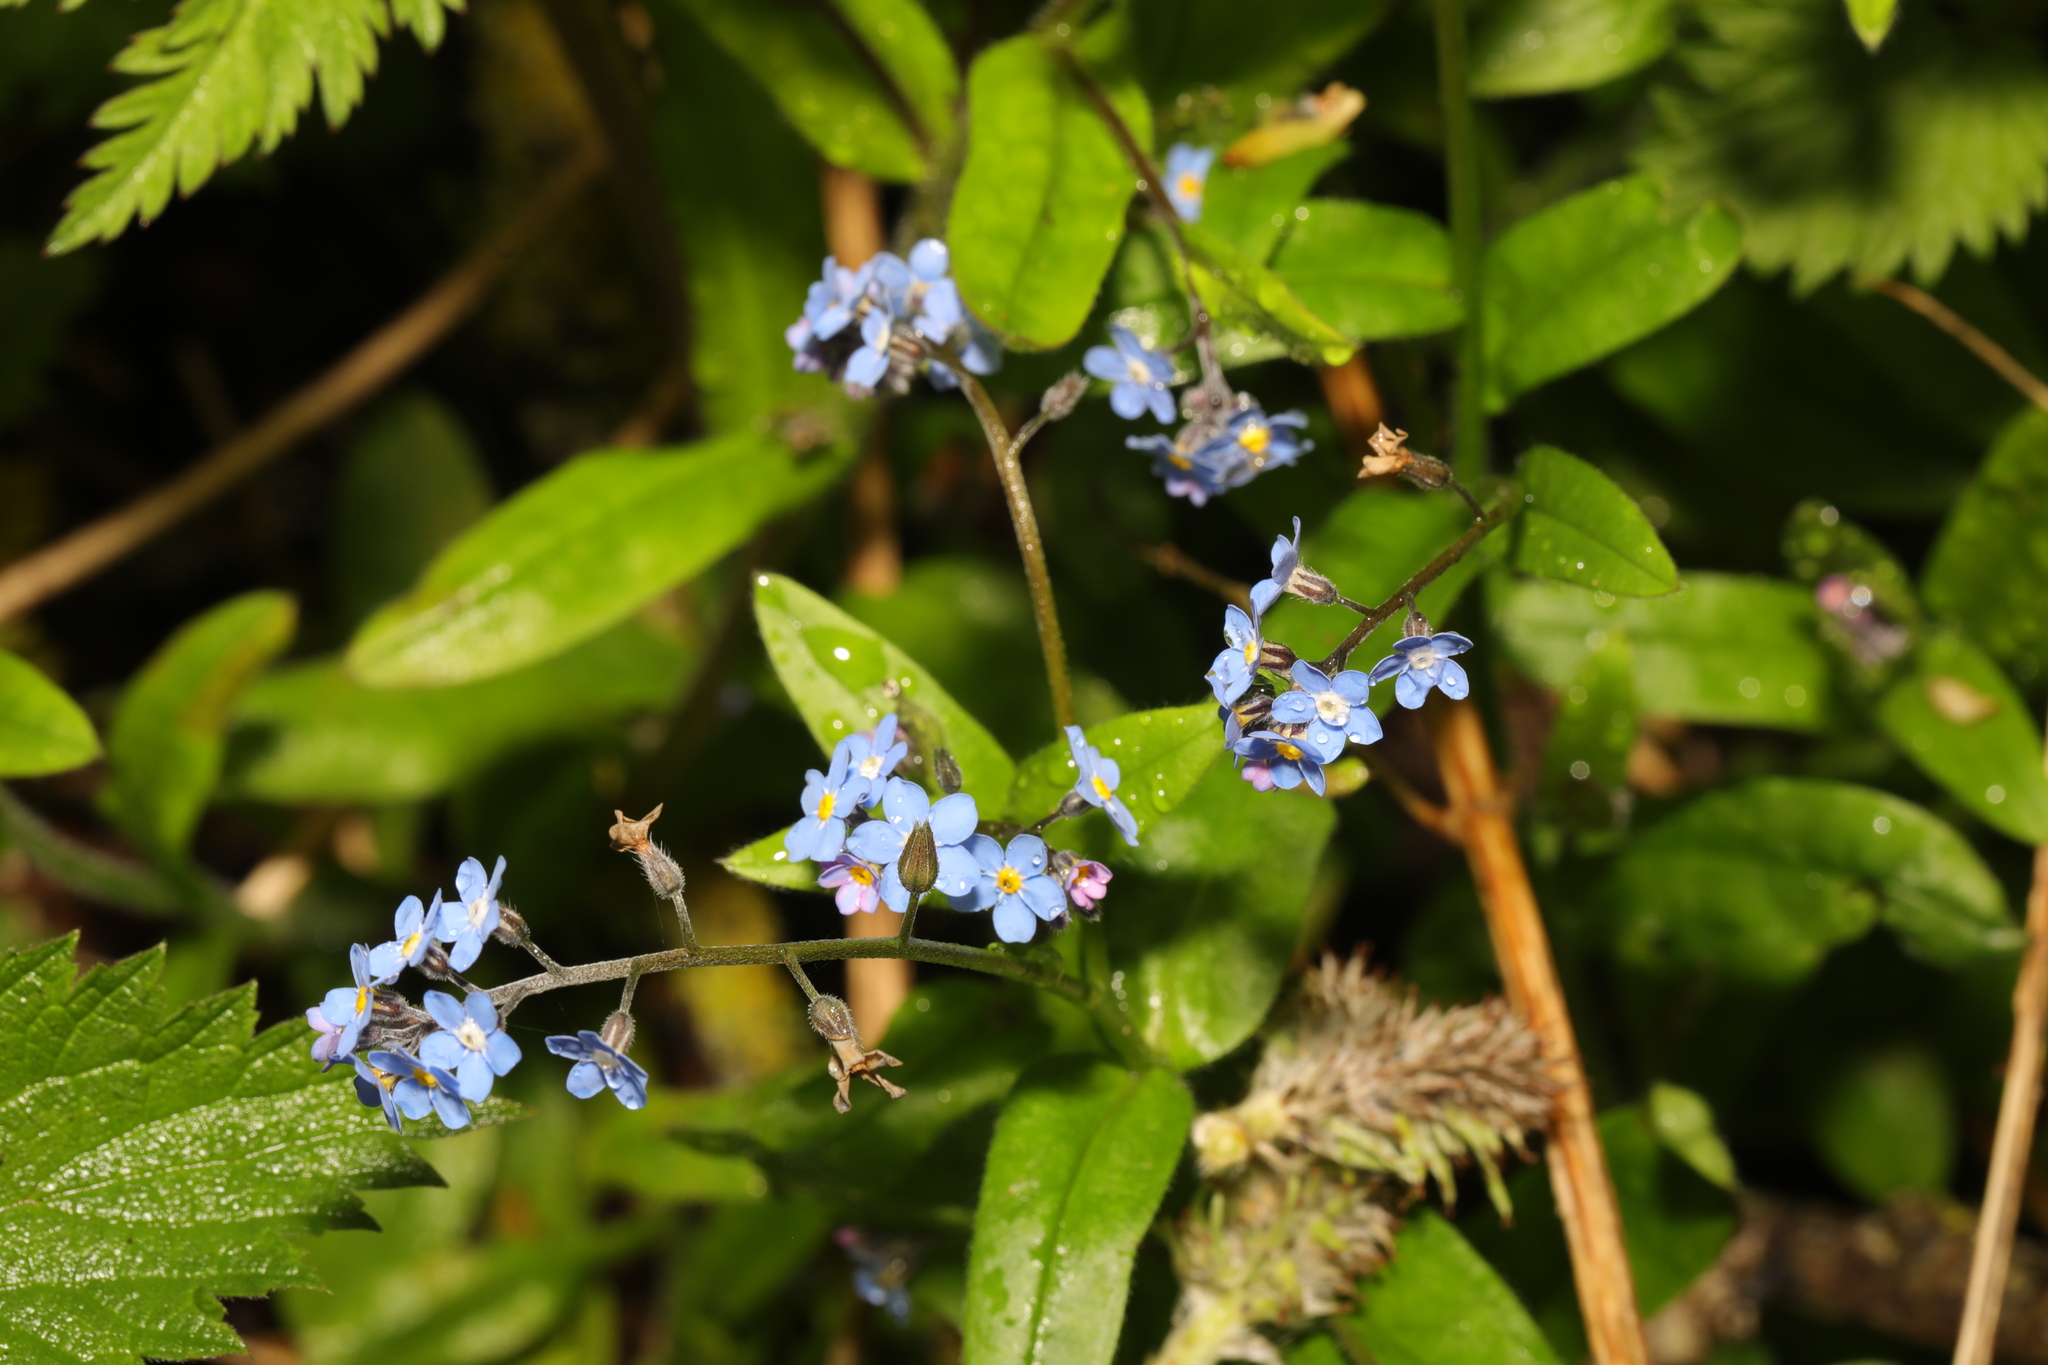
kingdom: Plantae
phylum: Tracheophyta
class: Magnoliopsida
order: Boraginales
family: Boraginaceae
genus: Myosotis
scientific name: Myosotis sylvatica
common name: Wood forget-me-not
